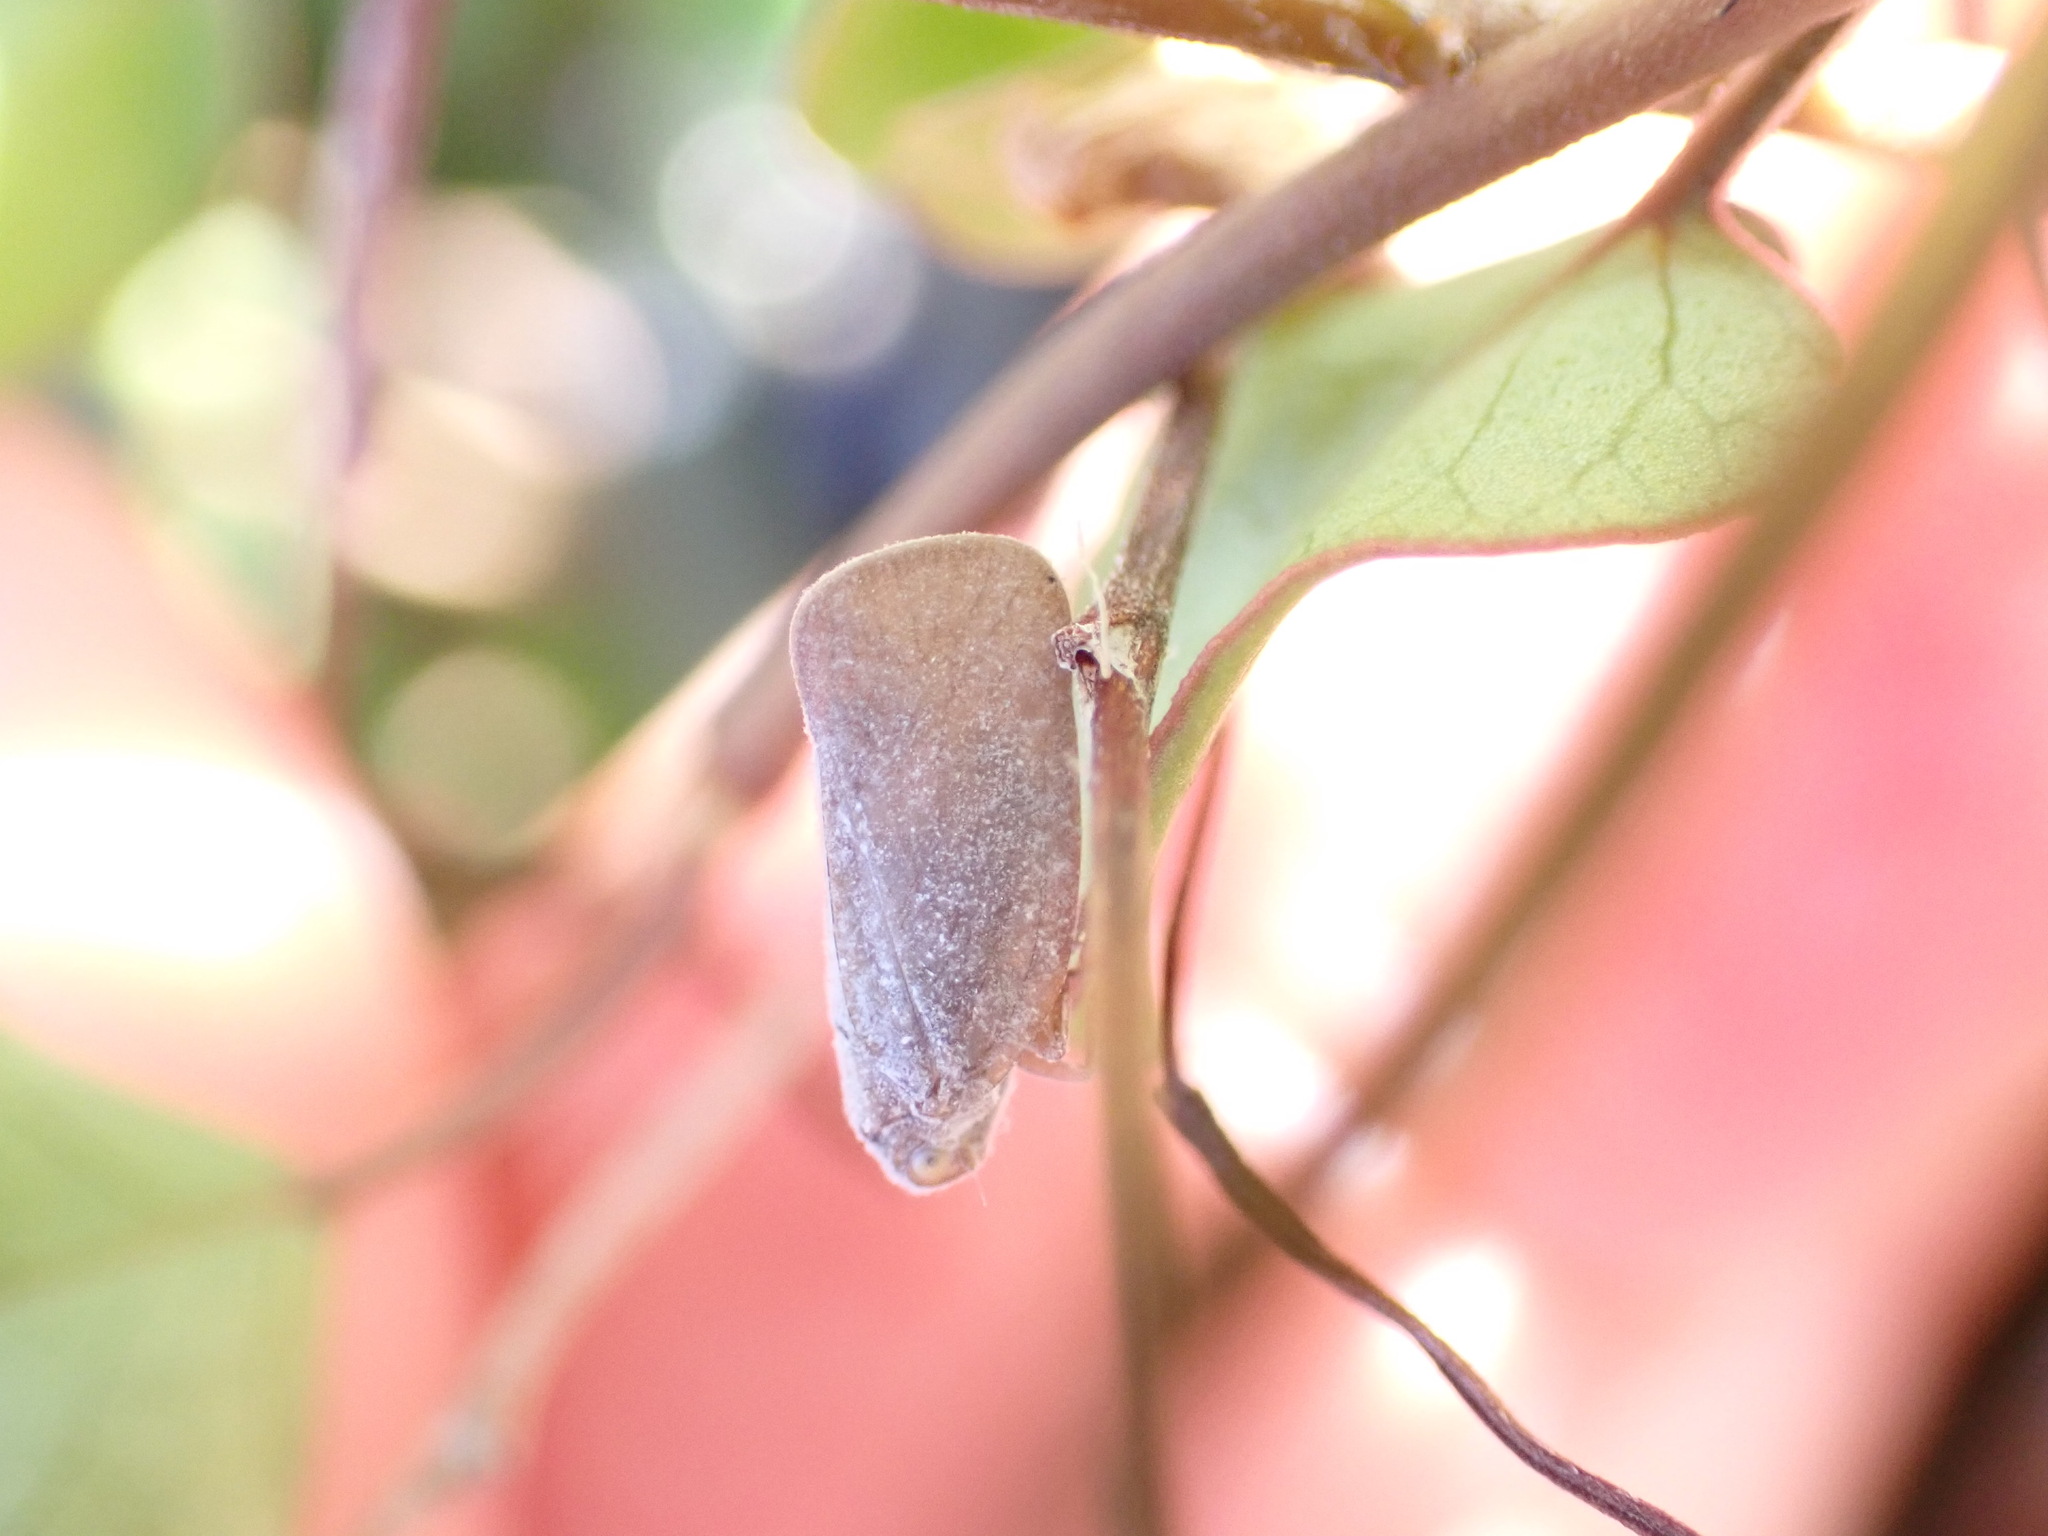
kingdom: Animalia
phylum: Arthropoda
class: Insecta
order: Hemiptera
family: Flatidae
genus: Anzora
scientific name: Anzora unicolor
